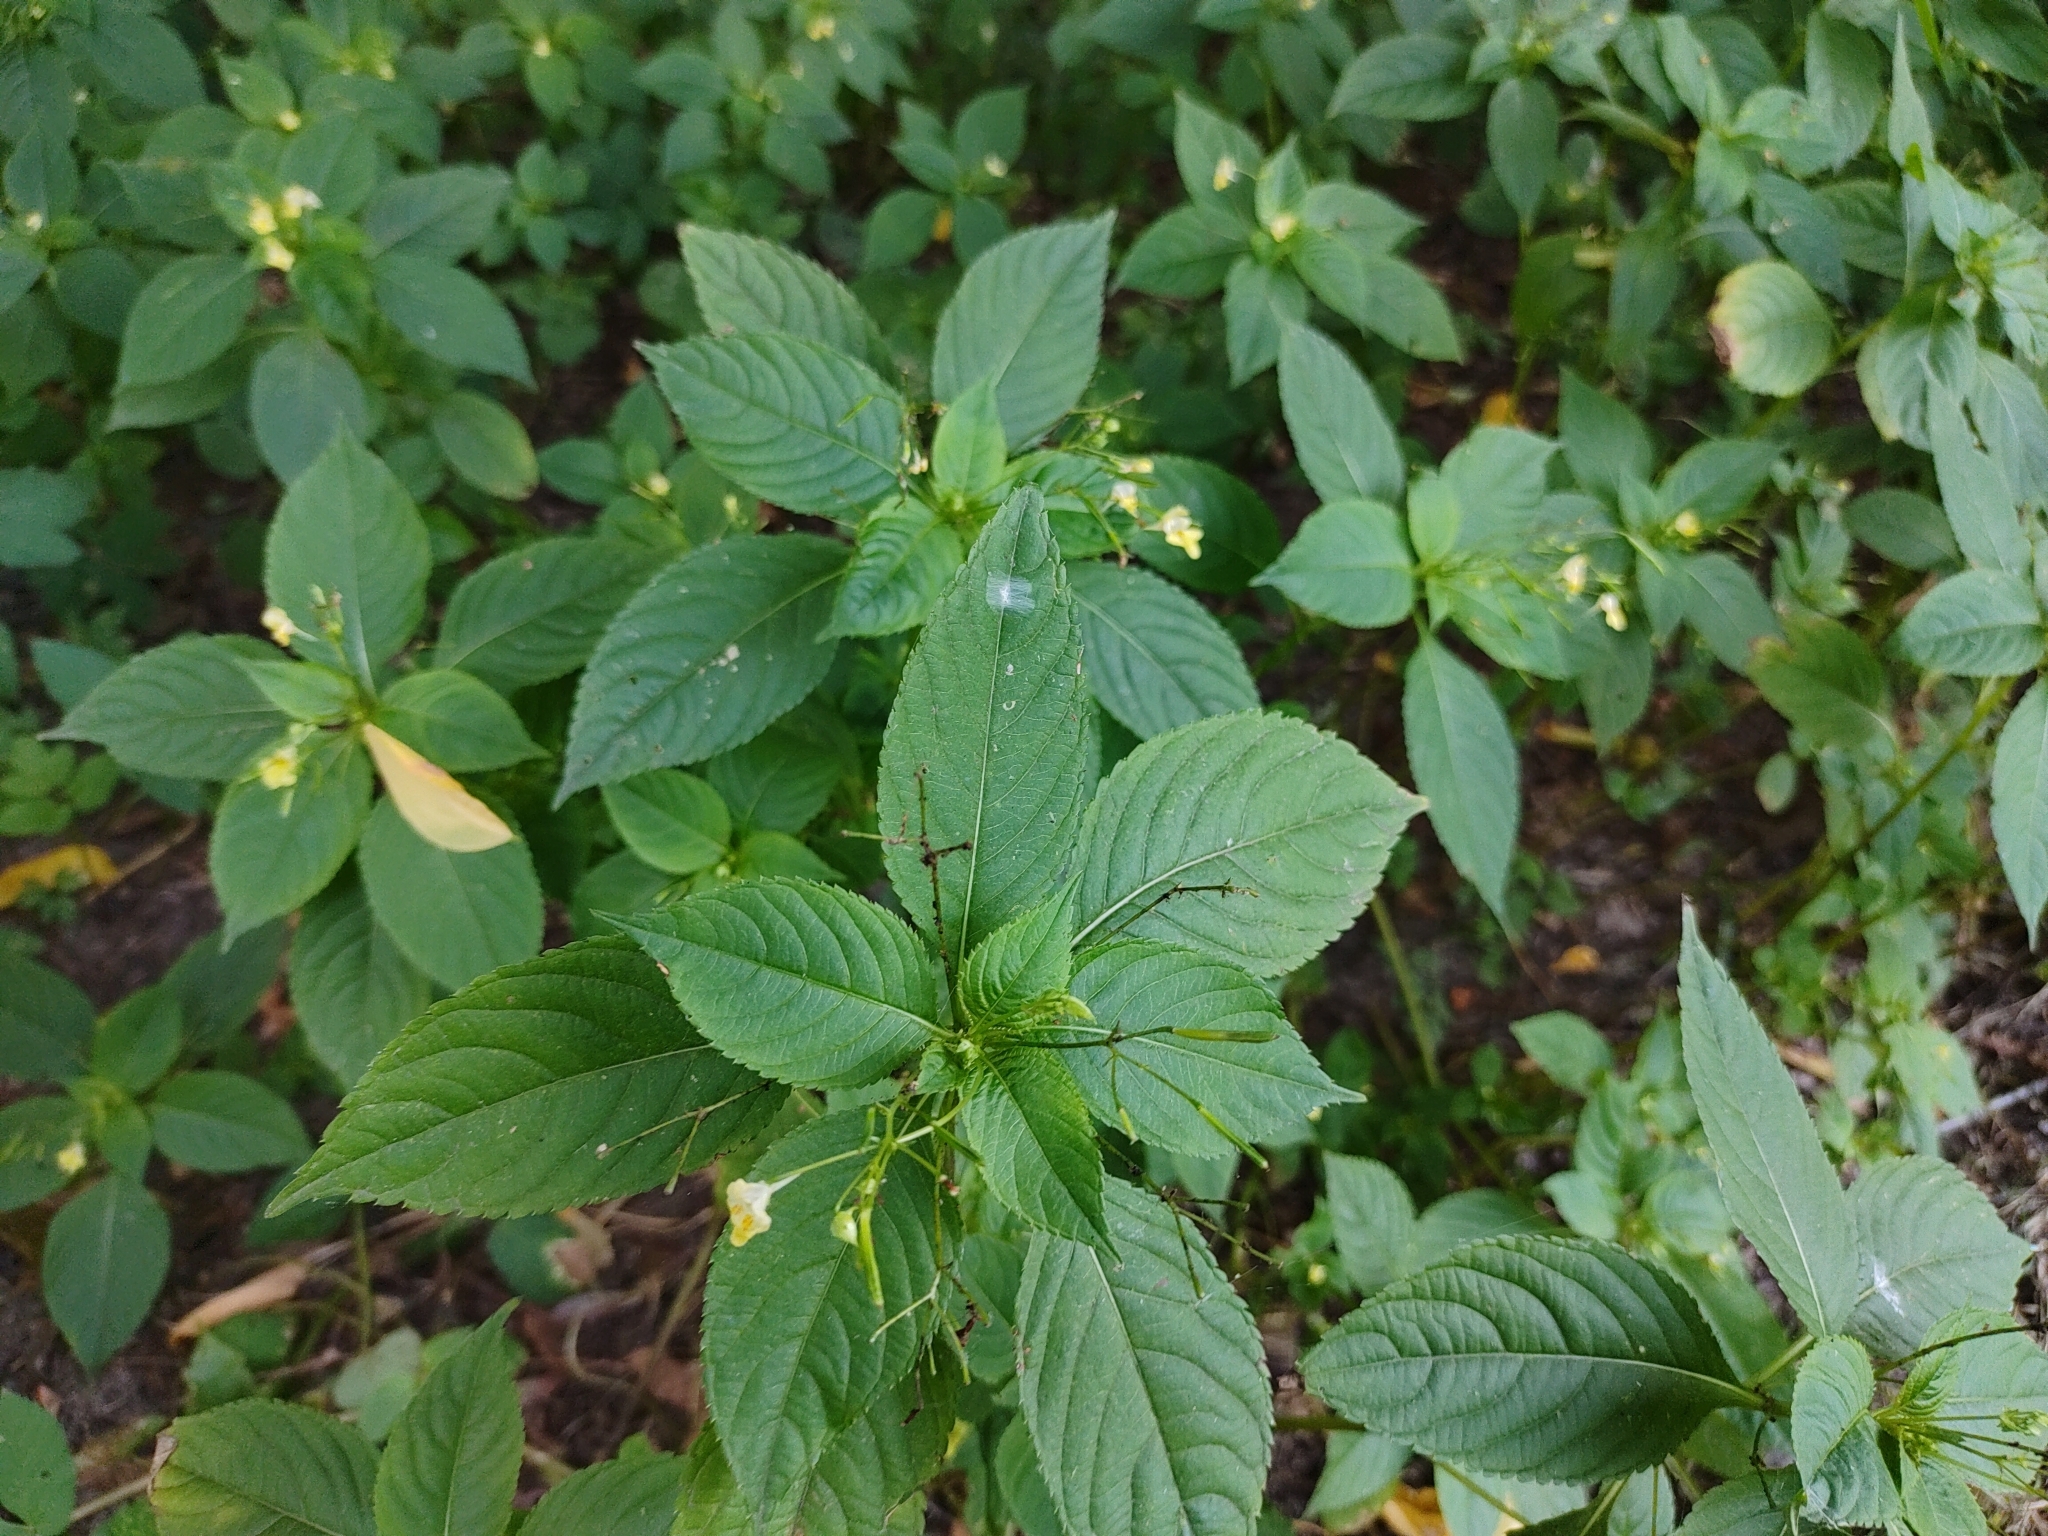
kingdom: Plantae
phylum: Tracheophyta
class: Magnoliopsida
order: Ericales
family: Balsaminaceae
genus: Impatiens
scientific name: Impatiens parviflora
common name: Small balsam
